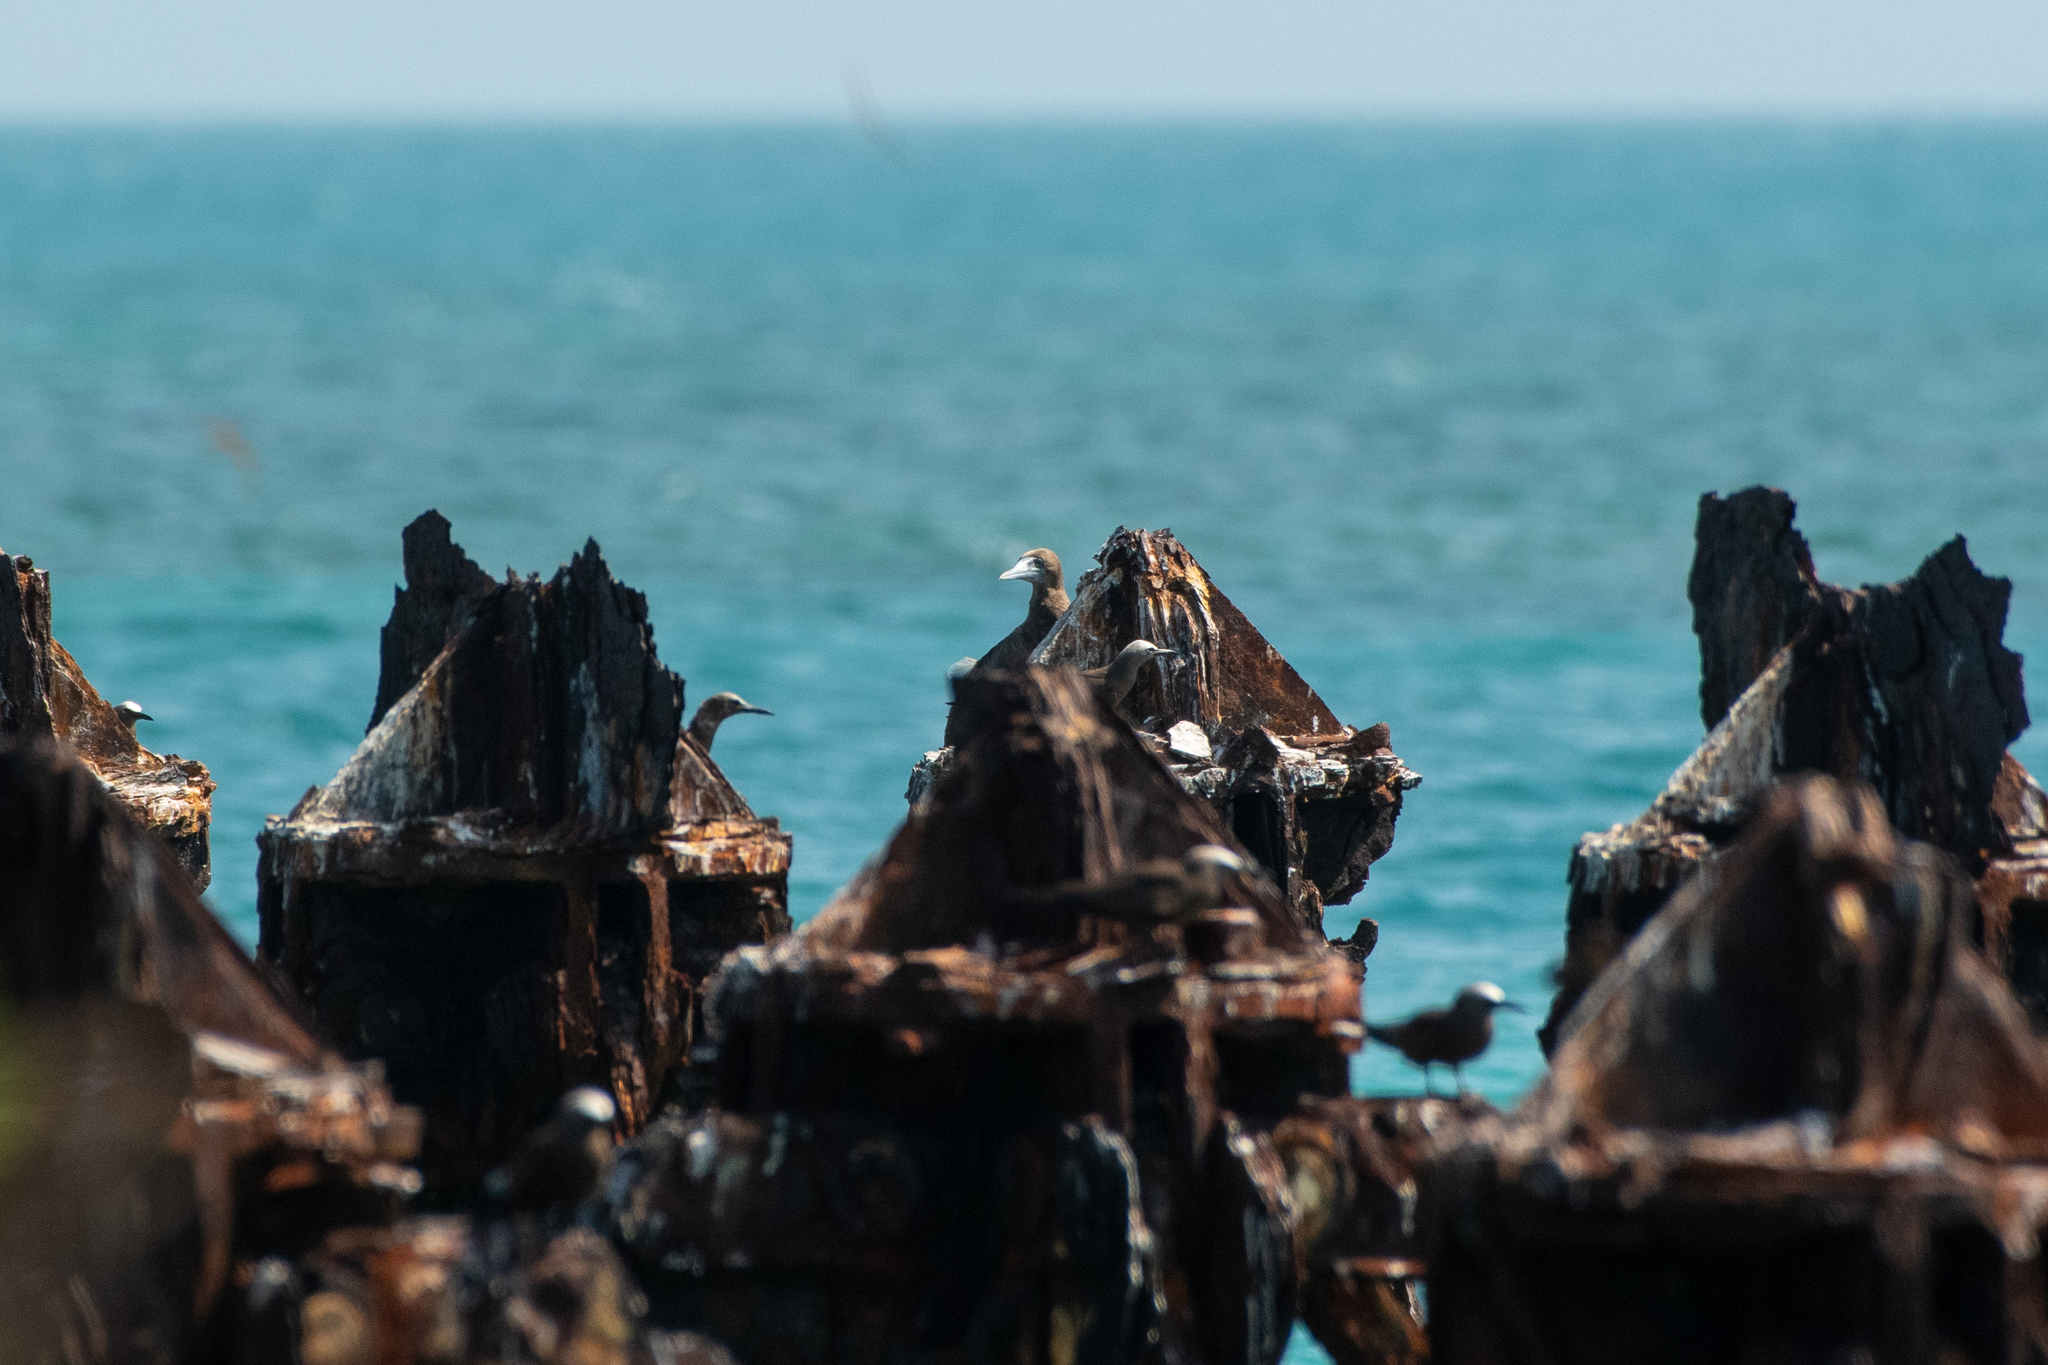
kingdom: Animalia
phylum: Chordata
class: Aves
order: Suliformes
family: Sulidae
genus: Sula
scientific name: Sula leucogaster
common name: Brown booby
